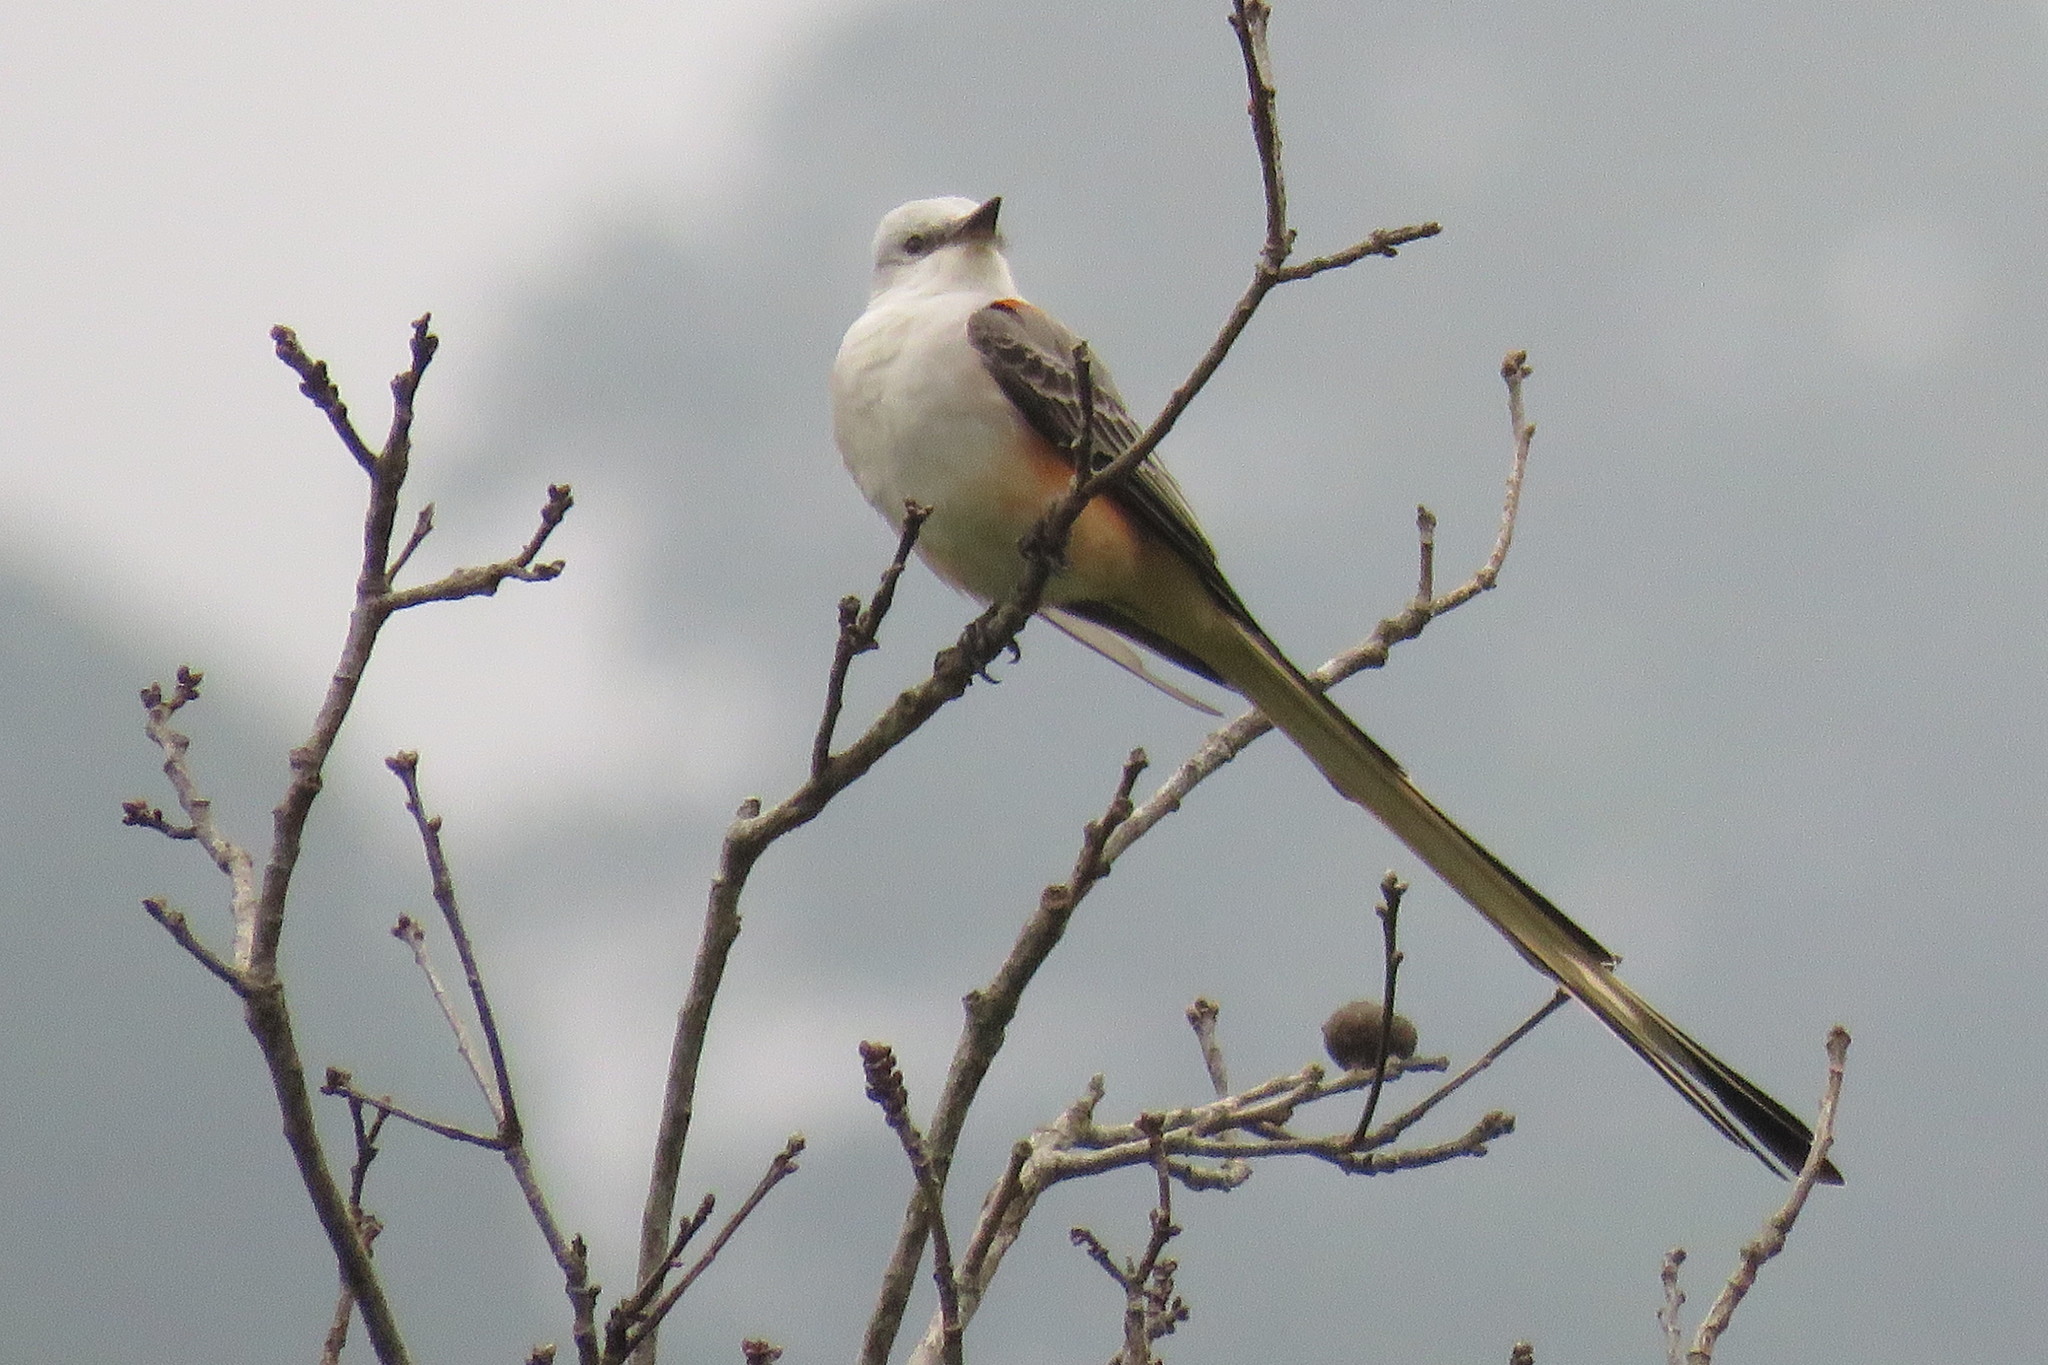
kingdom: Animalia
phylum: Chordata
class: Aves
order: Passeriformes
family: Tyrannidae
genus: Tyrannus
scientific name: Tyrannus forficatus
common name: Scissor-tailed flycatcher
